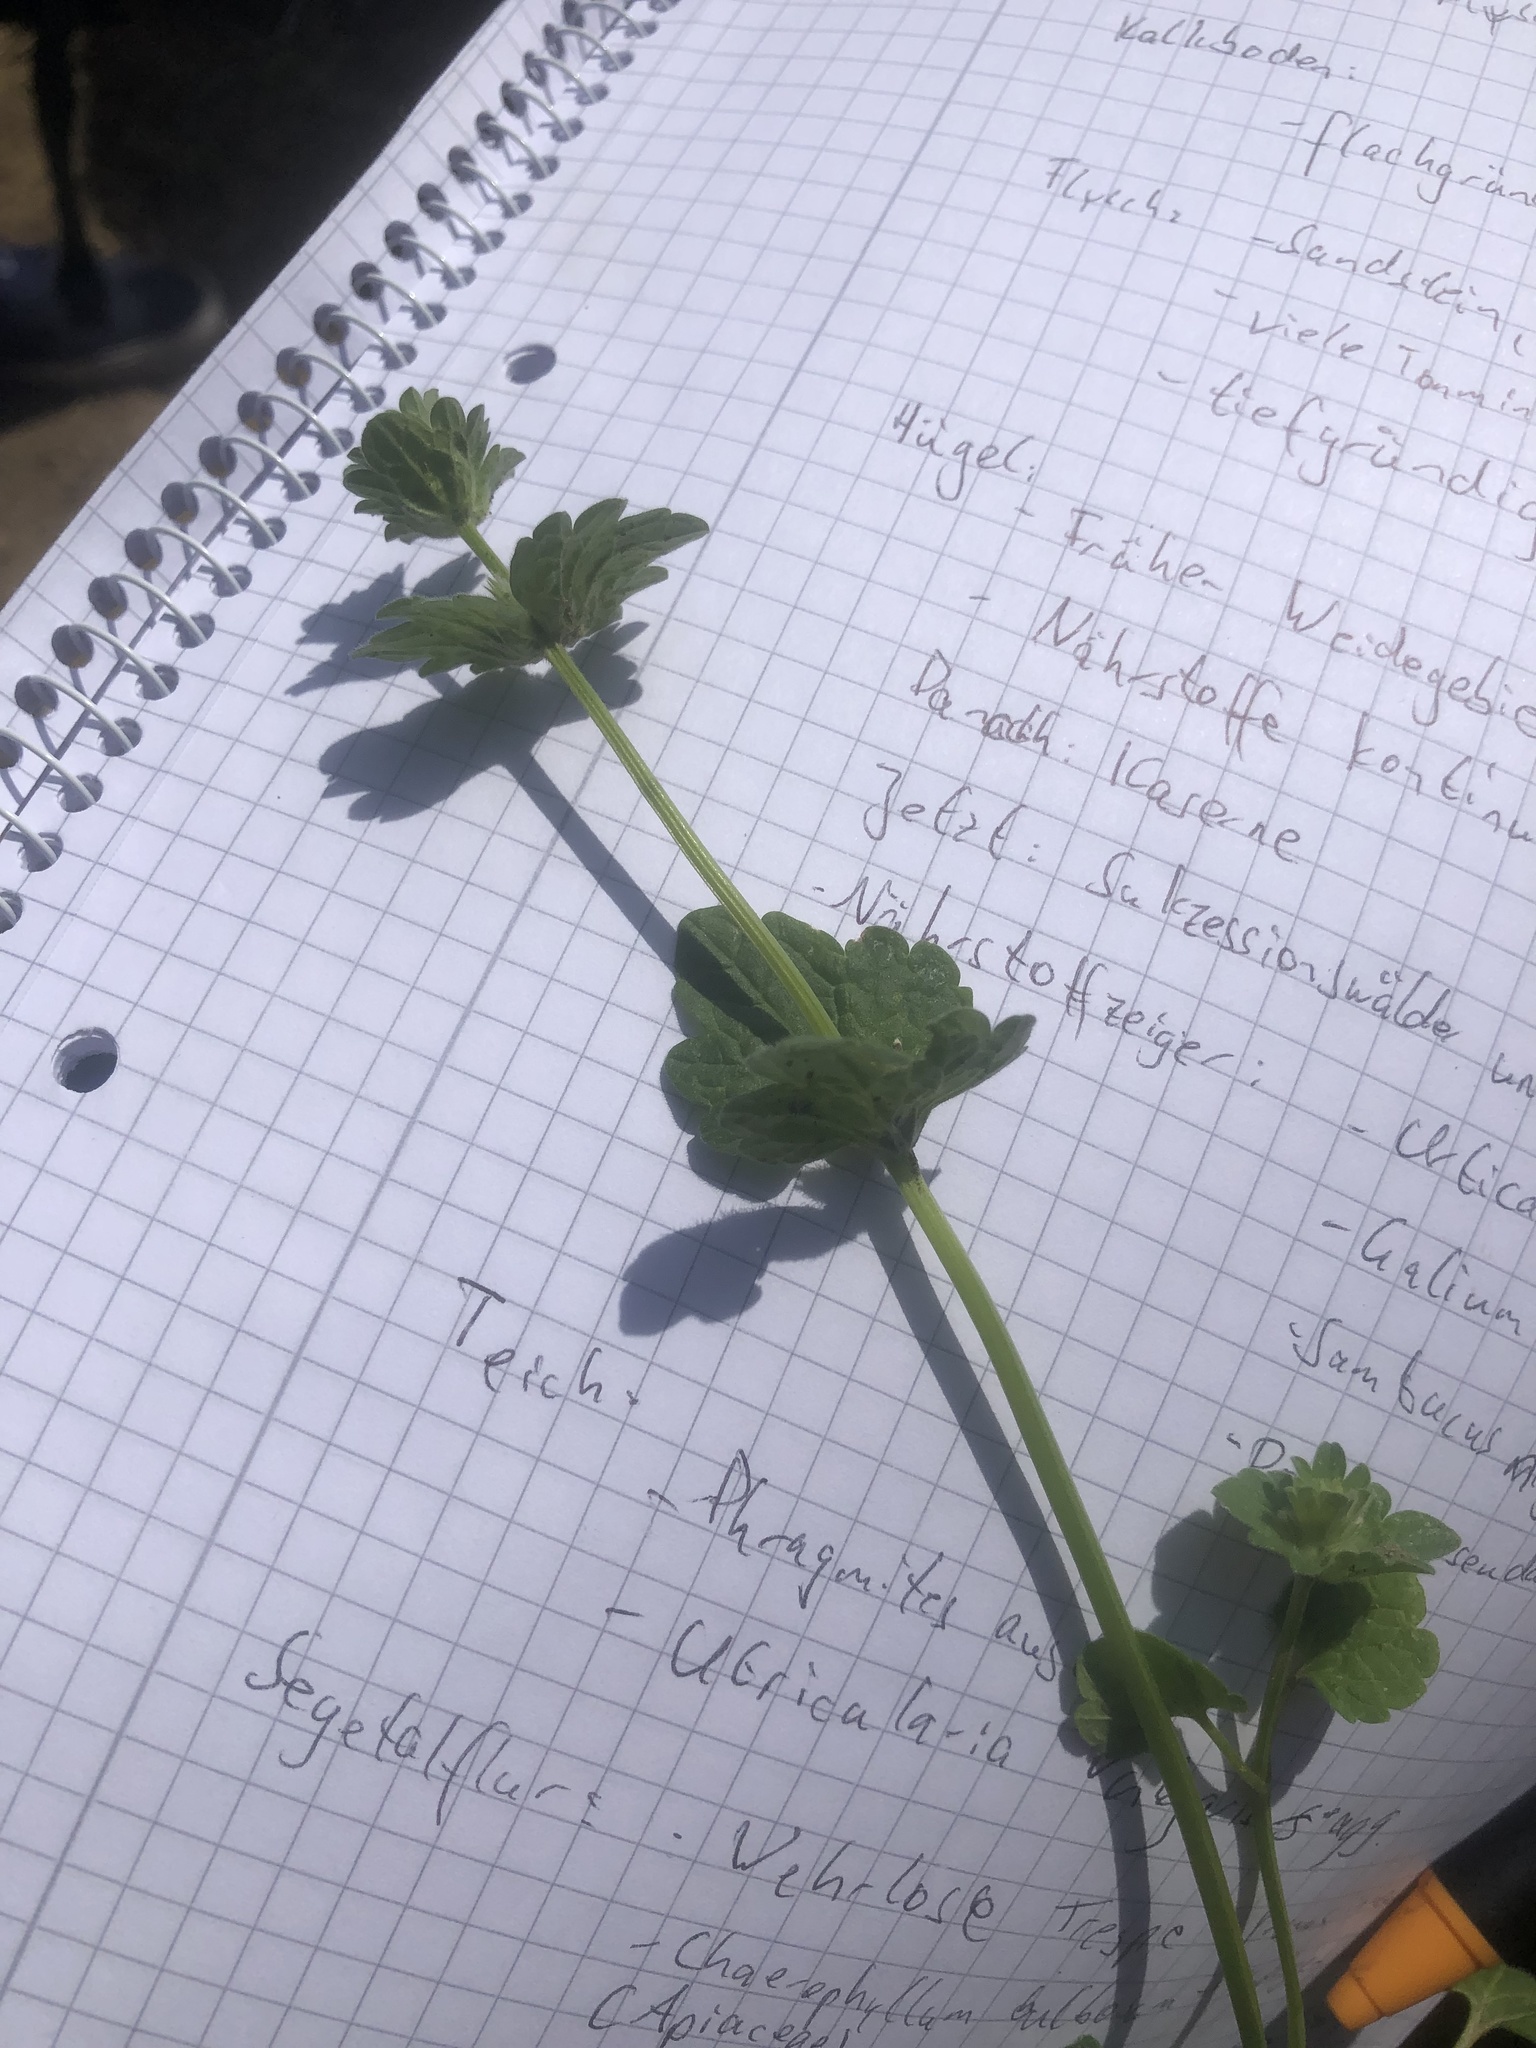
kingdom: Plantae
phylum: Tracheophyta
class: Magnoliopsida
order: Lamiales
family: Lamiaceae
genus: Lamium
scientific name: Lamium amplexicaule
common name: Henbit dead-nettle
